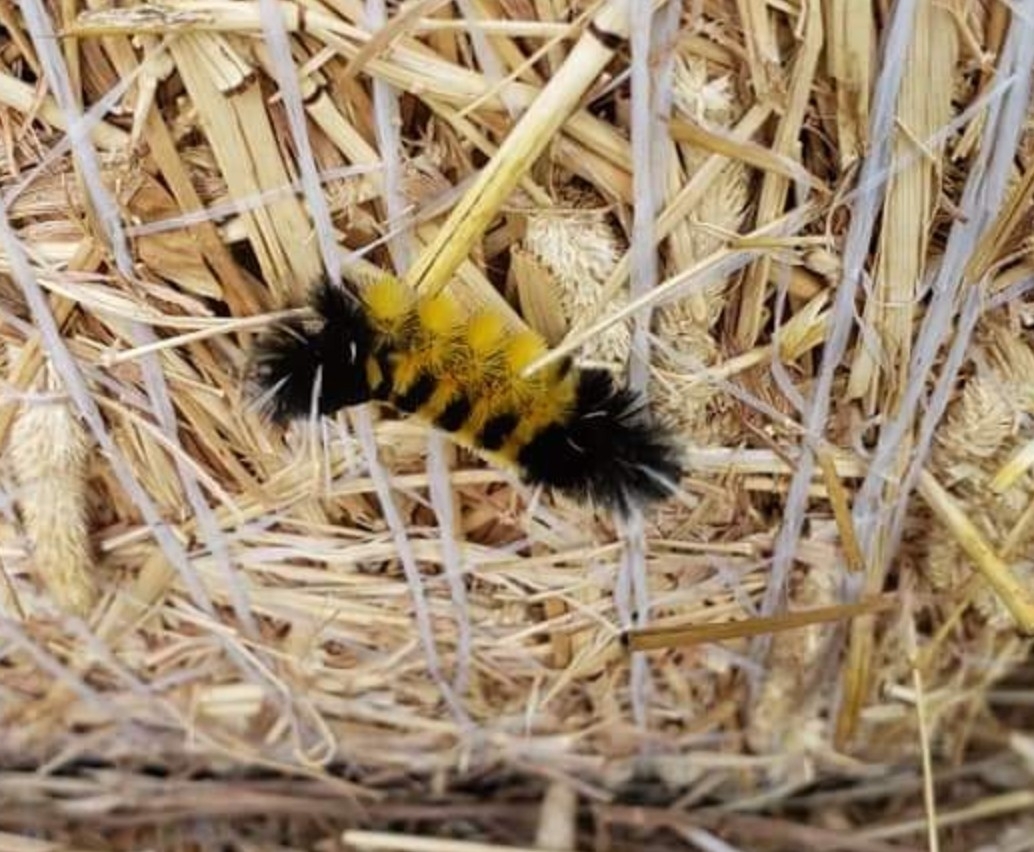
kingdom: Animalia
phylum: Arthropoda
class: Insecta
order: Lepidoptera
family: Erebidae
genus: Lophocampa
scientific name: Lophocampa maculata
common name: Spotted tussock moth
